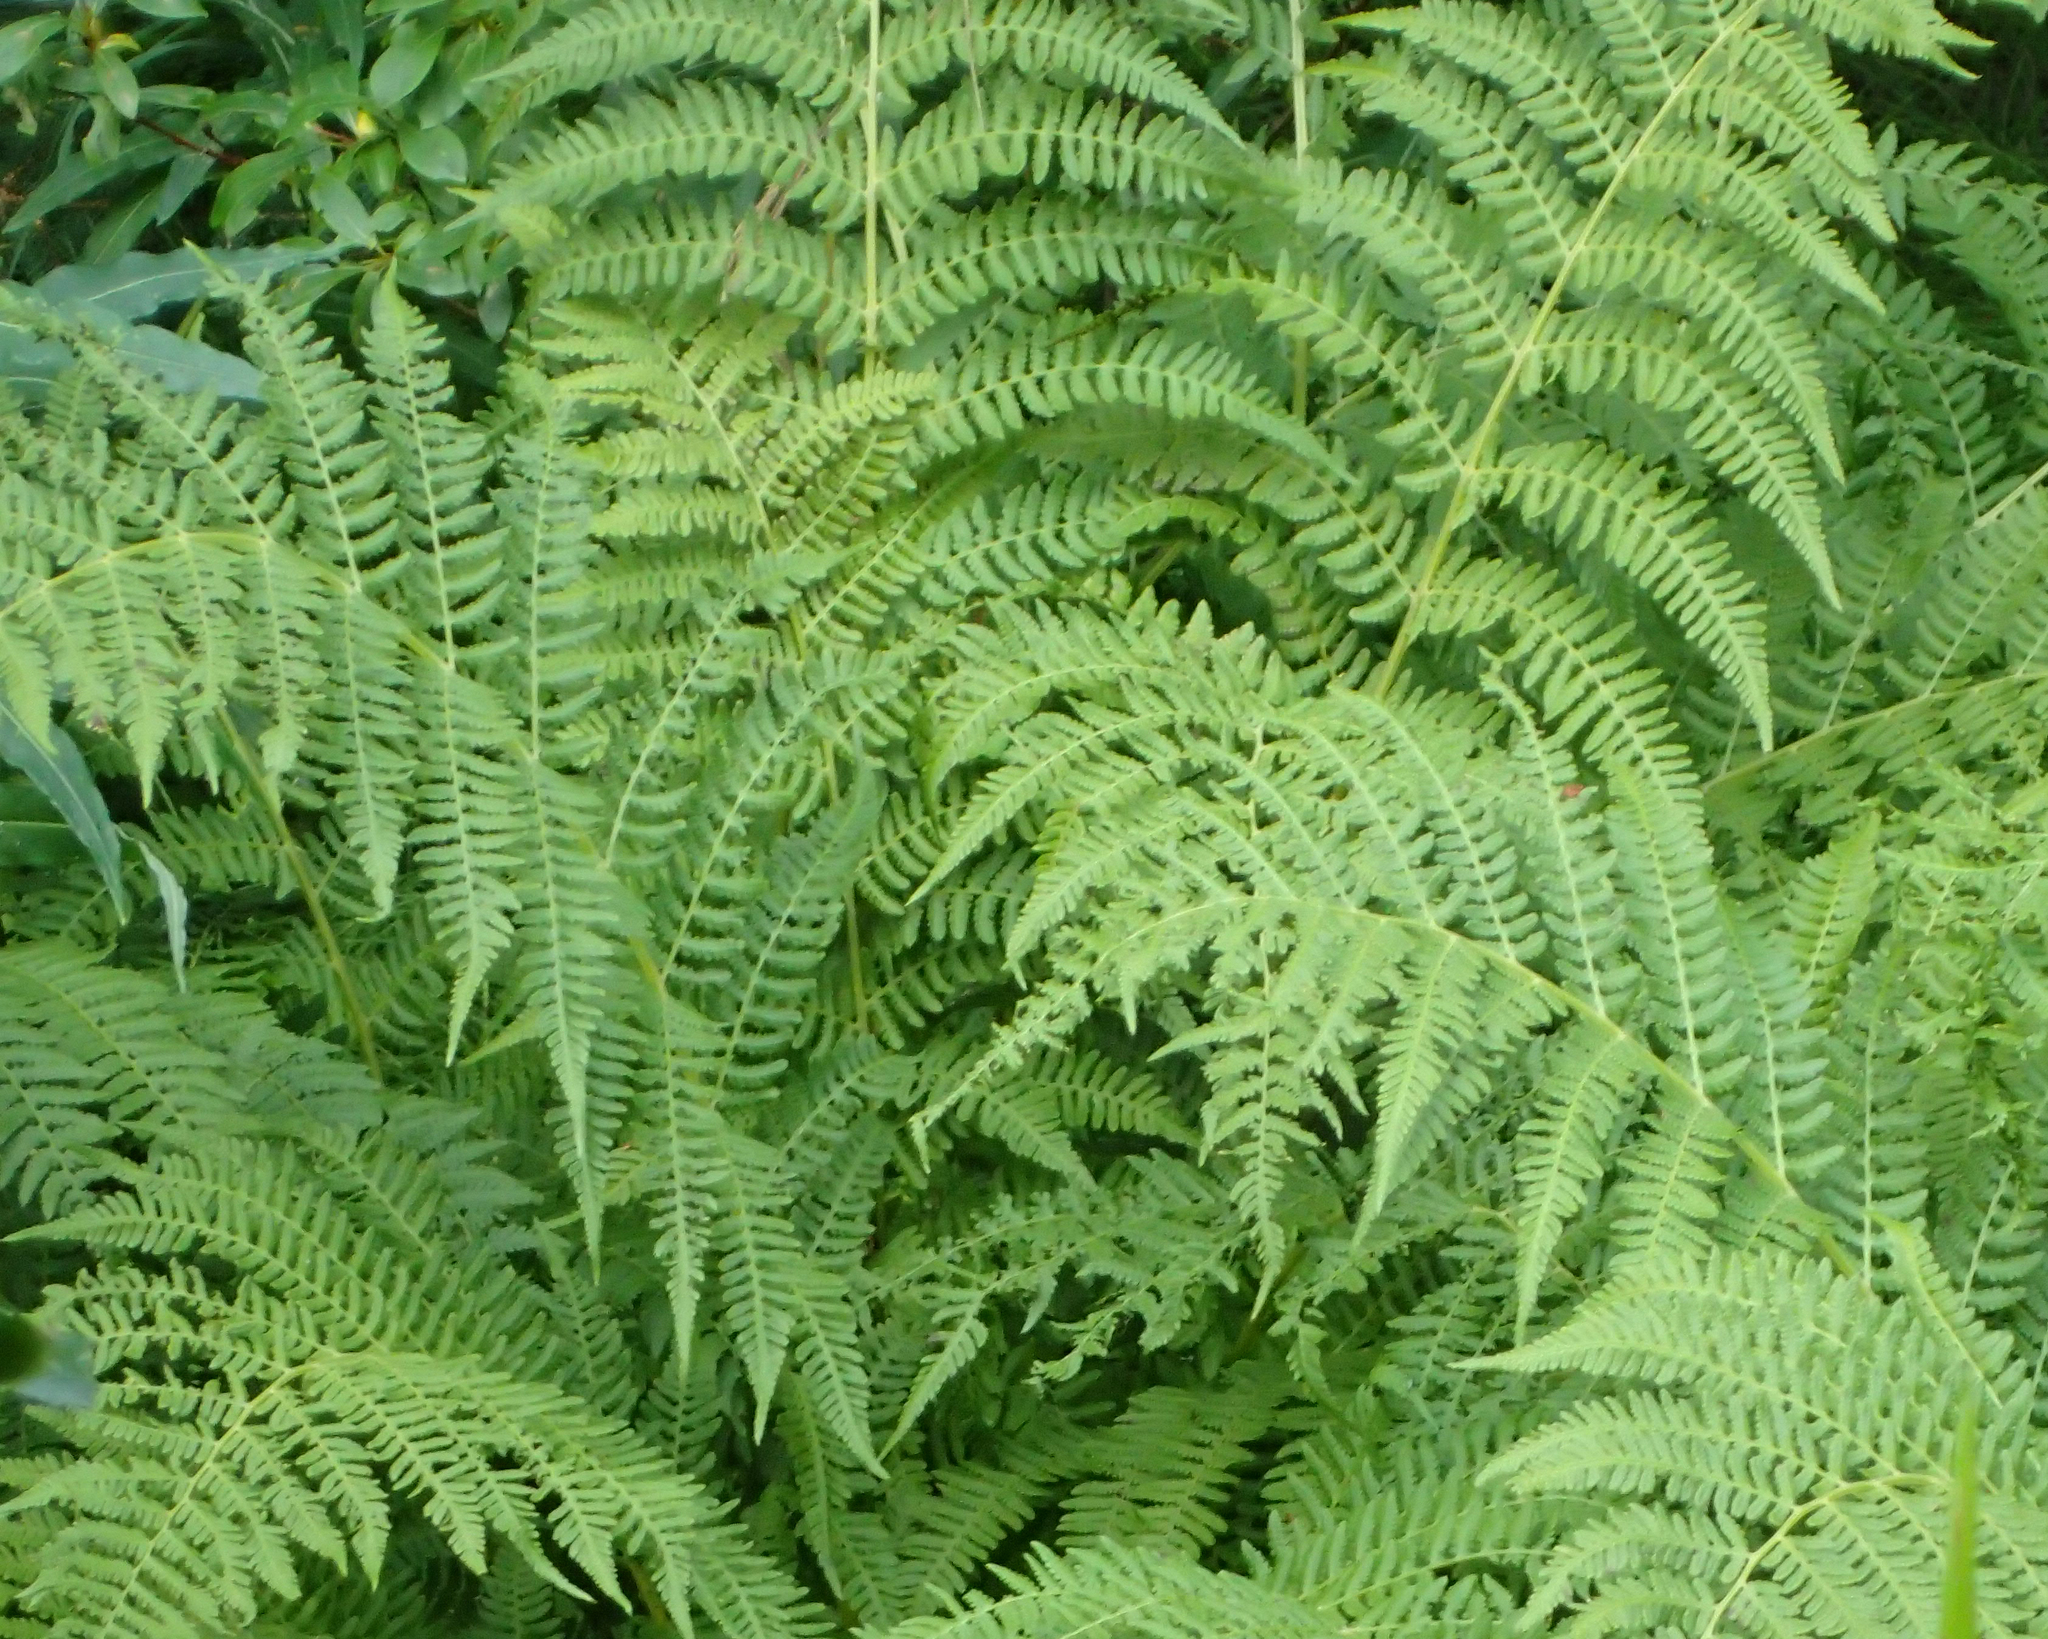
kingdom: Plantae
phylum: Tracheophyta
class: Polypodiopsida
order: Polypodiales
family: Athyriaceae
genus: Athyrium
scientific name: Athyrium filix-femina
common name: Lady fern
